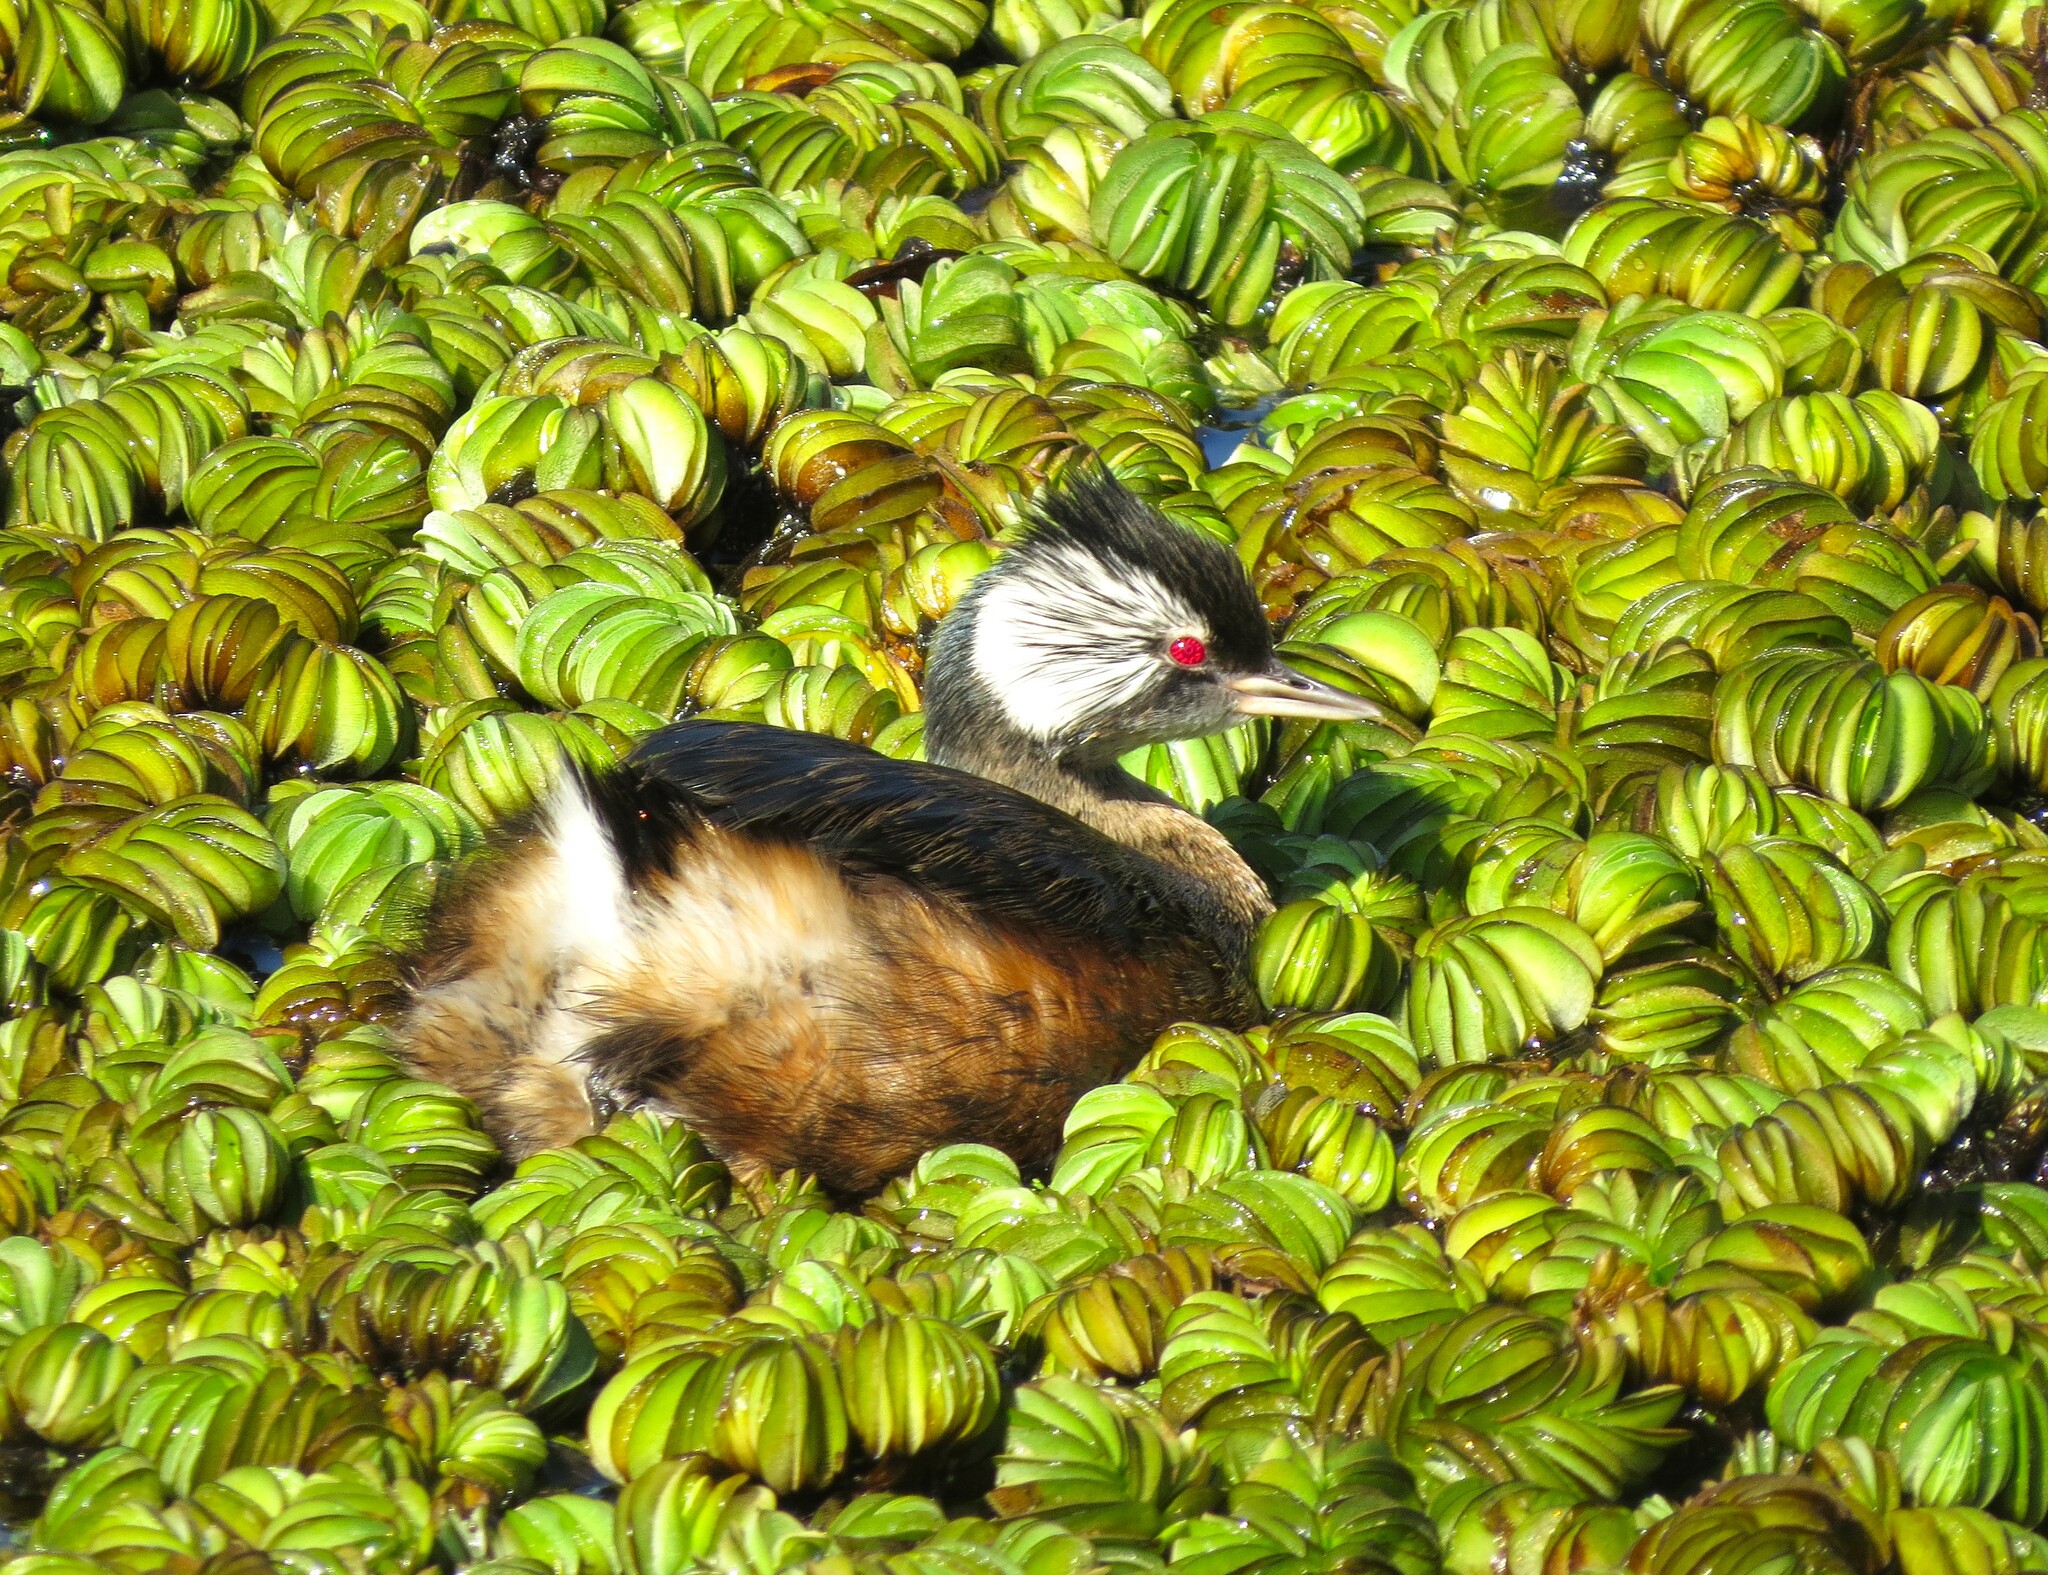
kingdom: Animalia
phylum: Chordata
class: Aves
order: Podicipediformes
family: Podicipedidae
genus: Rollandia
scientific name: Rollandia rolland
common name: White-tufted grebe
